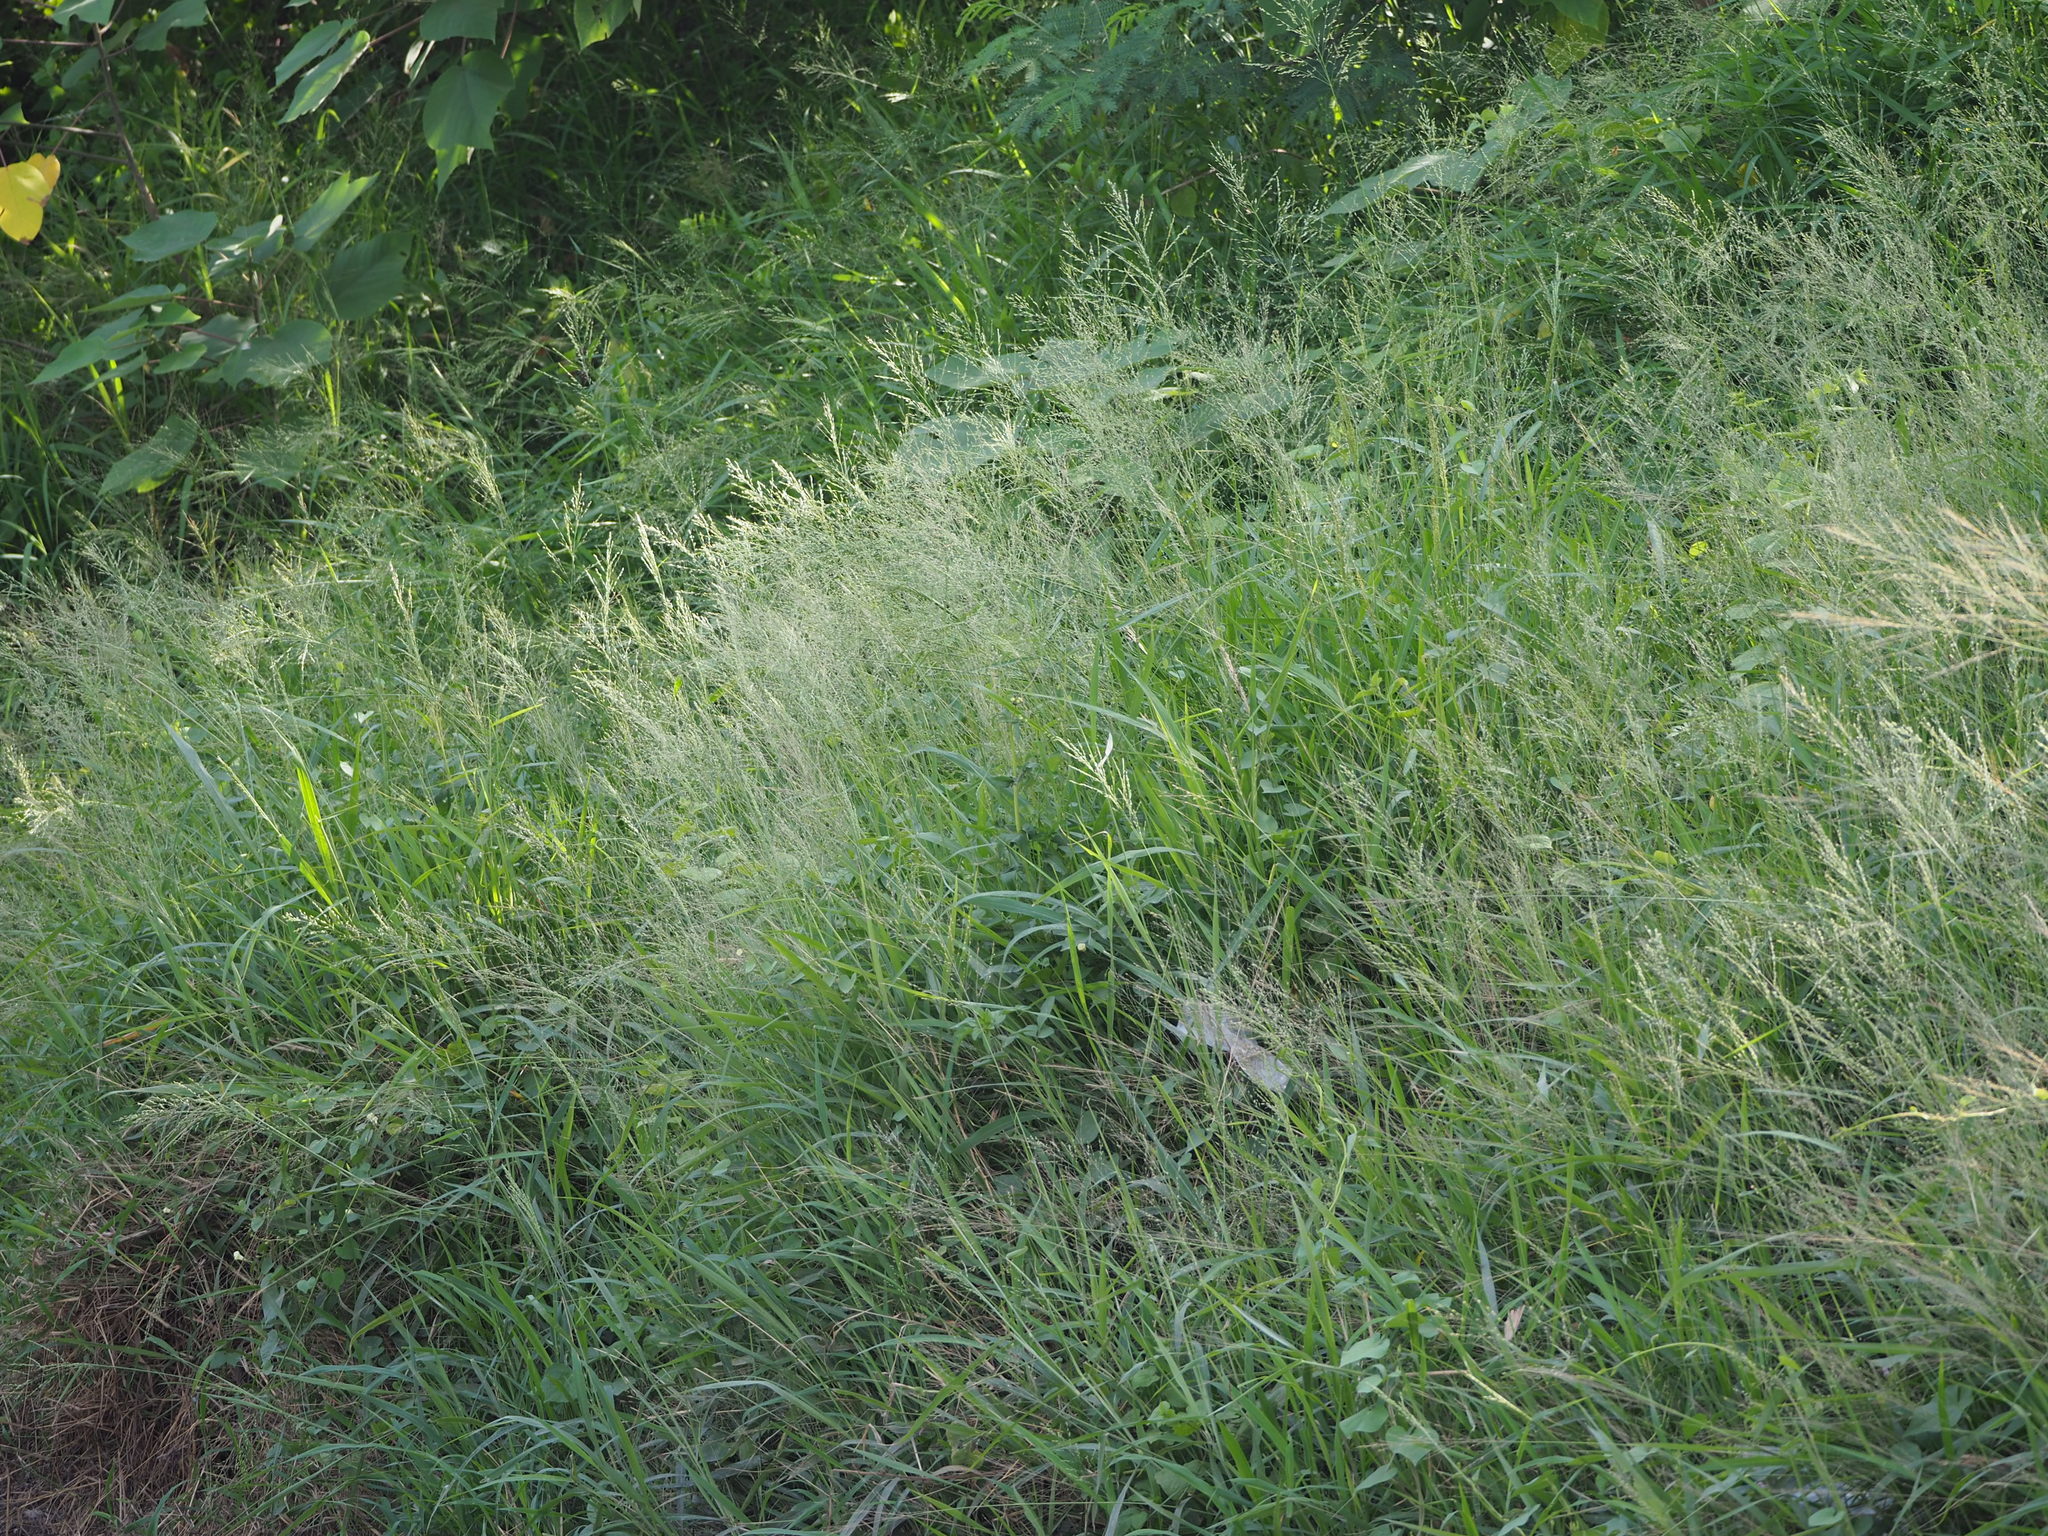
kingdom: Plantae
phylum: Tracheophyta
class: Liliopsida
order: Poales
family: Poaceae
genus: Megathyrsus
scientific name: Megathyrsus maximus
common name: Guineagrass
